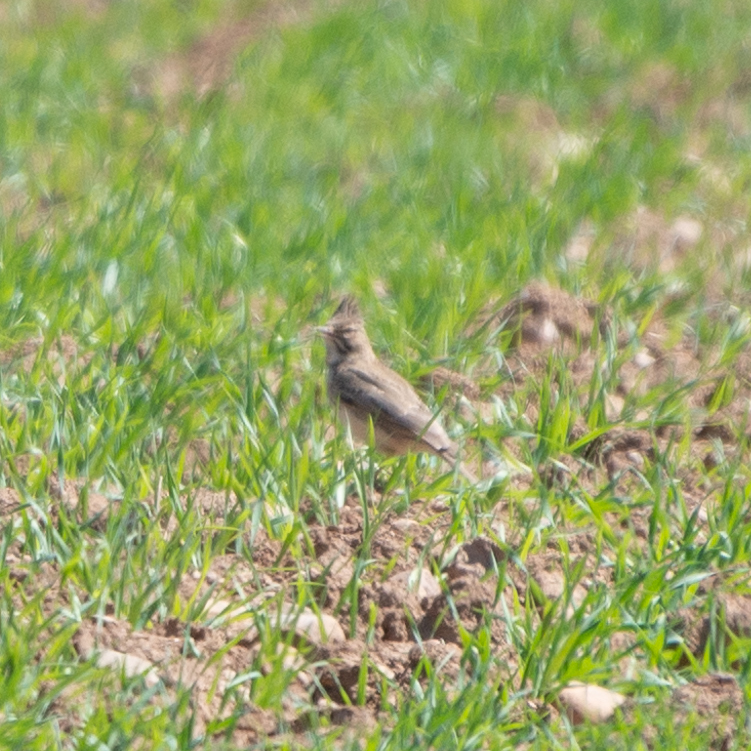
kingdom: Animalia
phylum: Chordata
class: Aves
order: Passeriformes
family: Alaudidae
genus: Galerida
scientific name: Galerida cristata
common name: Crested lark
